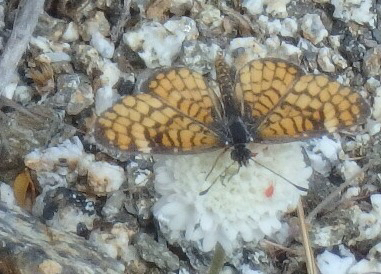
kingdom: Animalia
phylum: Arthropoda
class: Insecta
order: Lepidoptera
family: Nymphalidae
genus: Dymasia
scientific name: Dymasia dymas
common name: Tiny checkerspot
